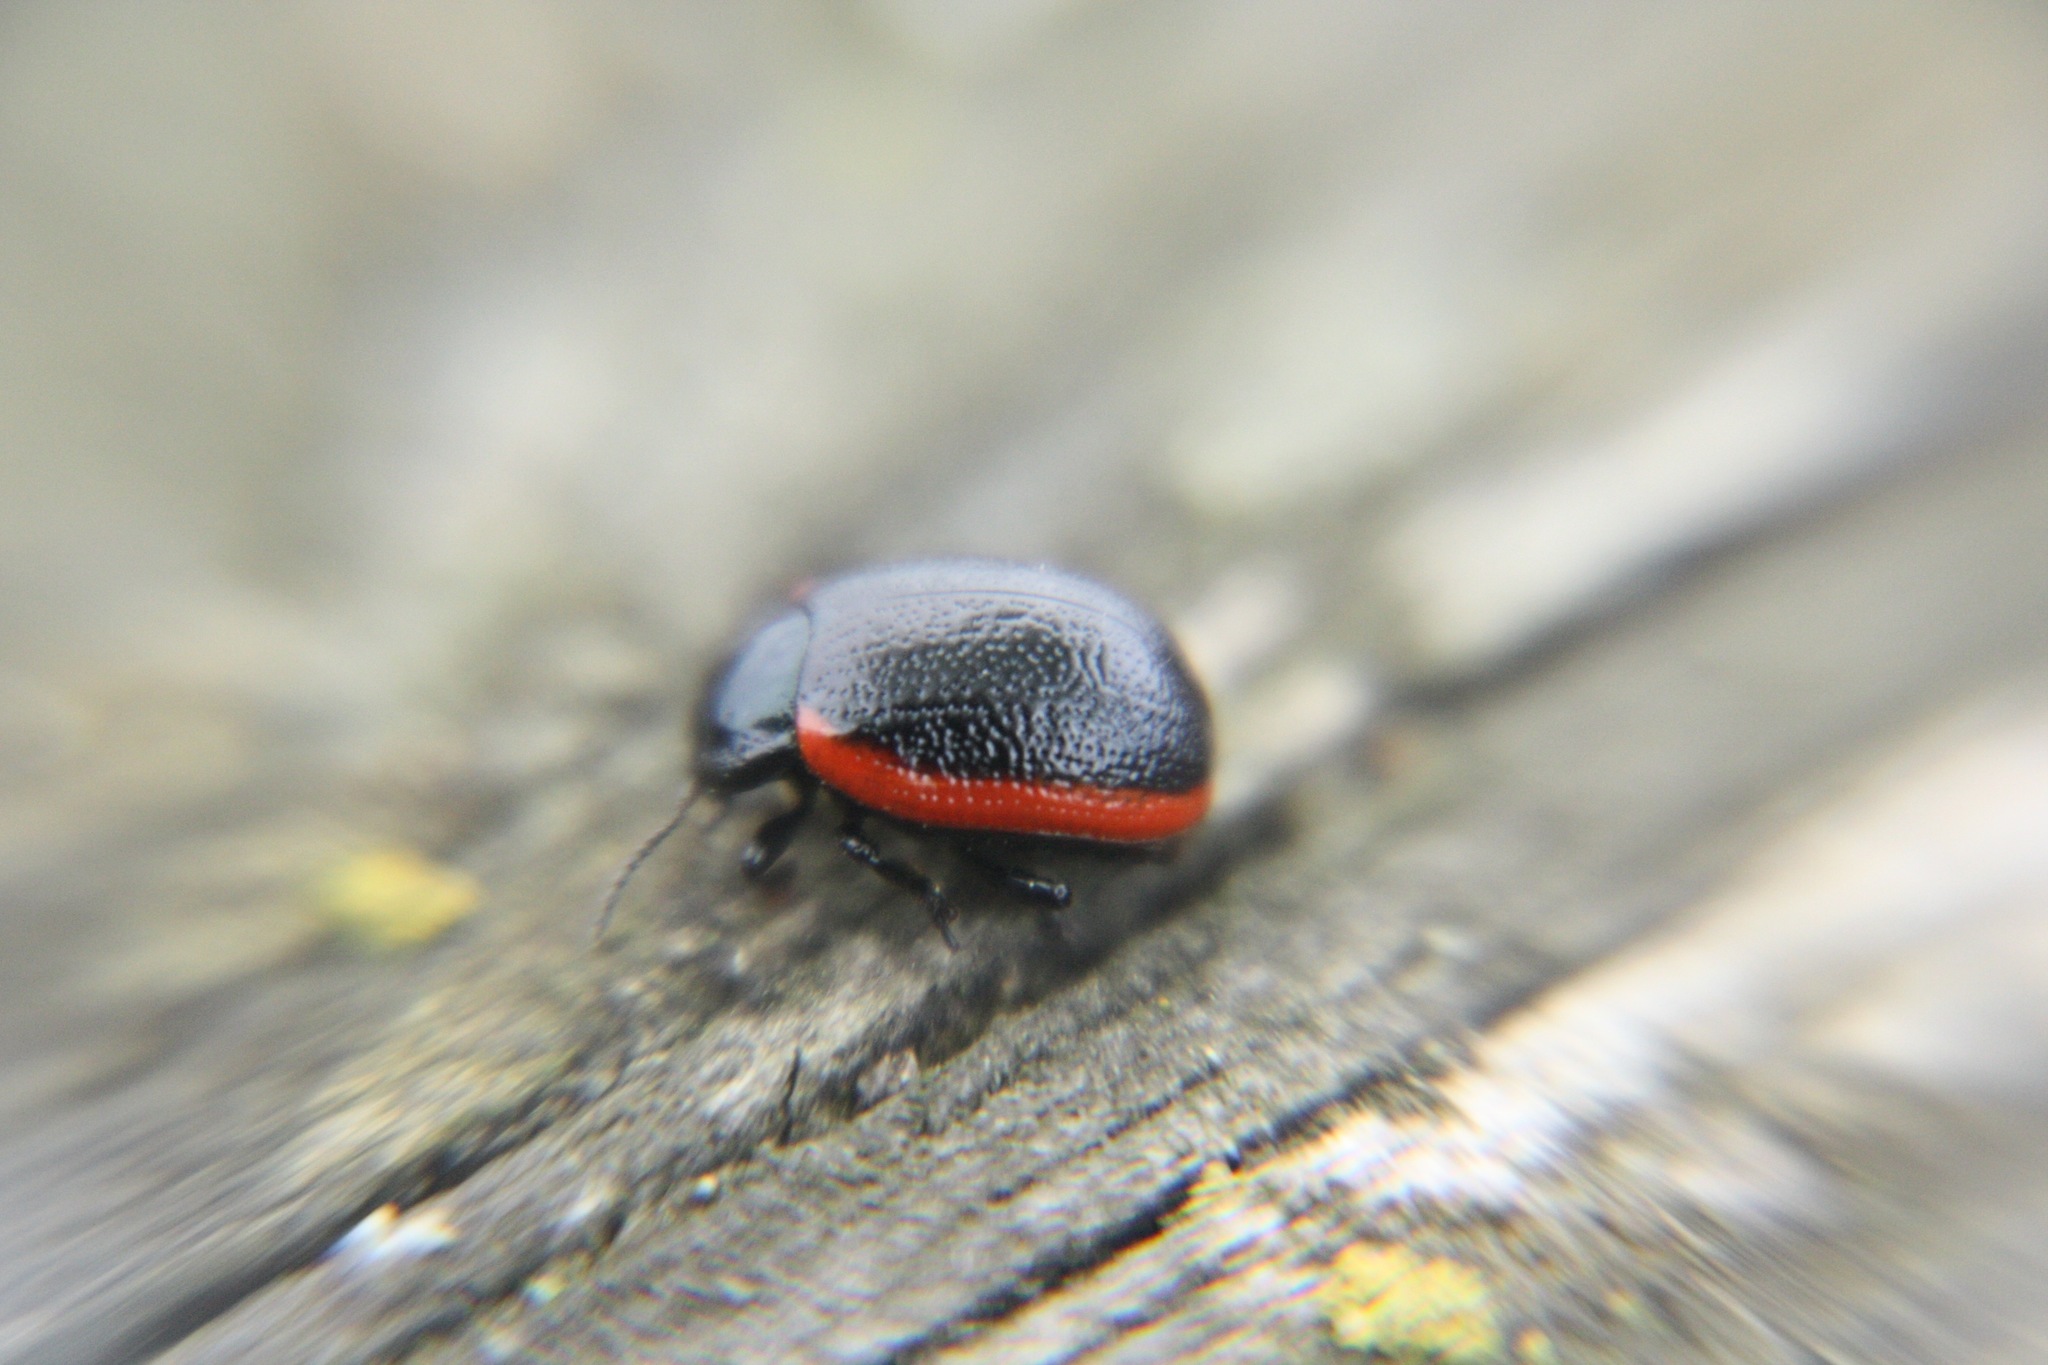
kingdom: Animalia
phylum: Arthropoda
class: Insecta
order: Coleoptera
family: Chrysomelidae
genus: Chrysolina
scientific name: Chrysolina sanguinolenta
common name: Toadflax leaf beetle
